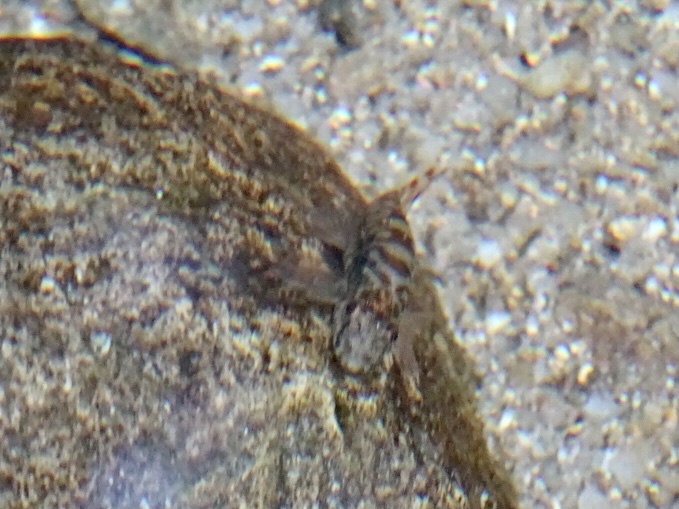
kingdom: Animalia
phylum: Chordata
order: Cypriniformes
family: Balitoridae
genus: Liniparhomaloptera
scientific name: Liniparhomaloptera disparis
